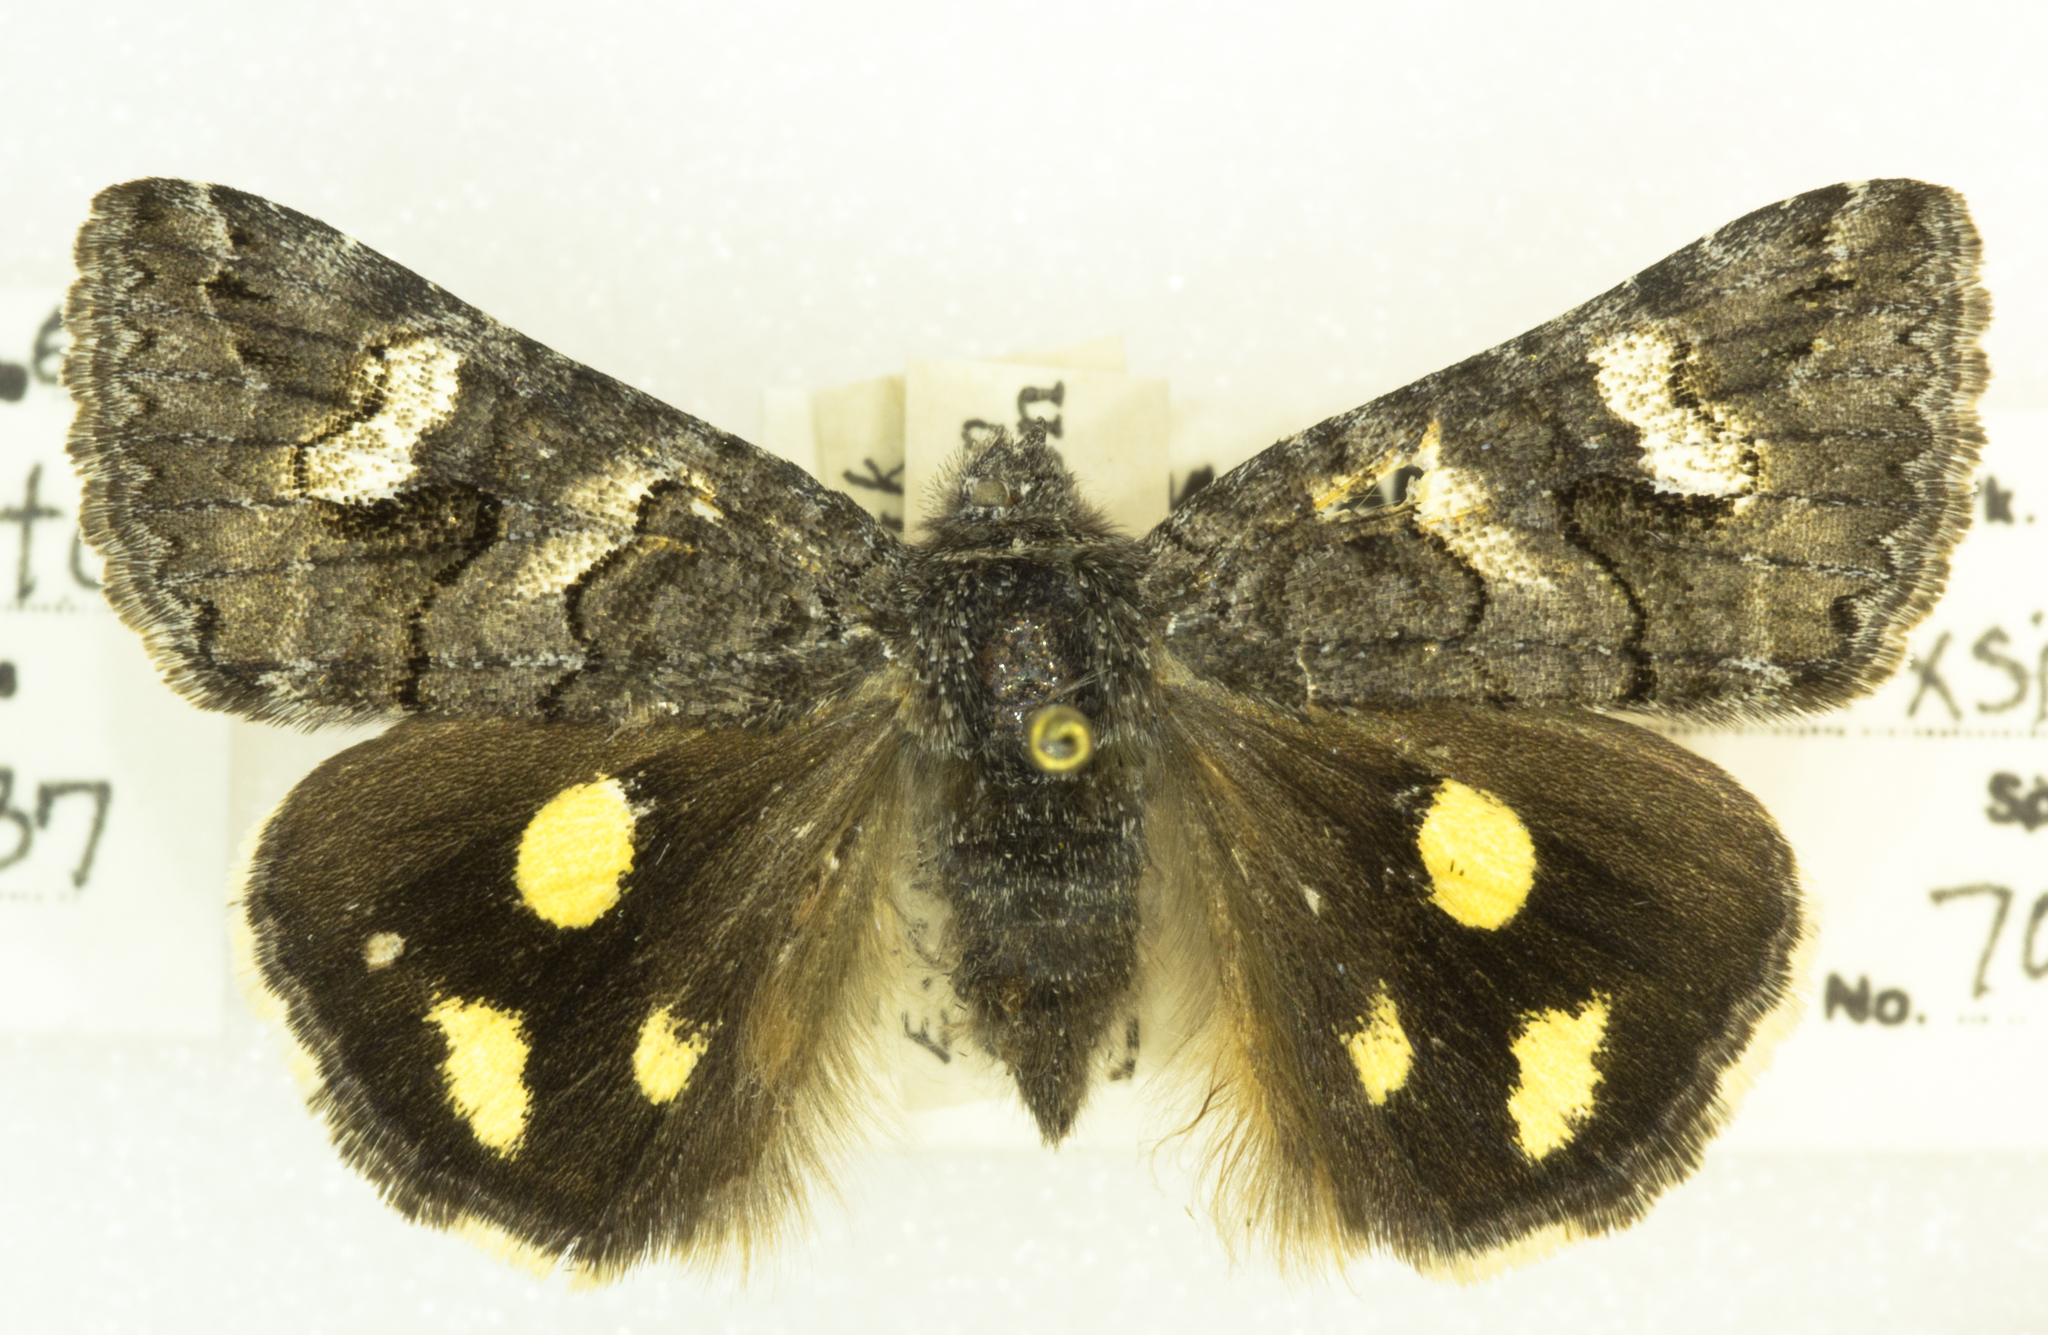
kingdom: Animalia
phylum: Arthropoda
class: Insecta
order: Lepidoptera
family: Erebidae
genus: Litocala
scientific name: Litocala sexsignata
